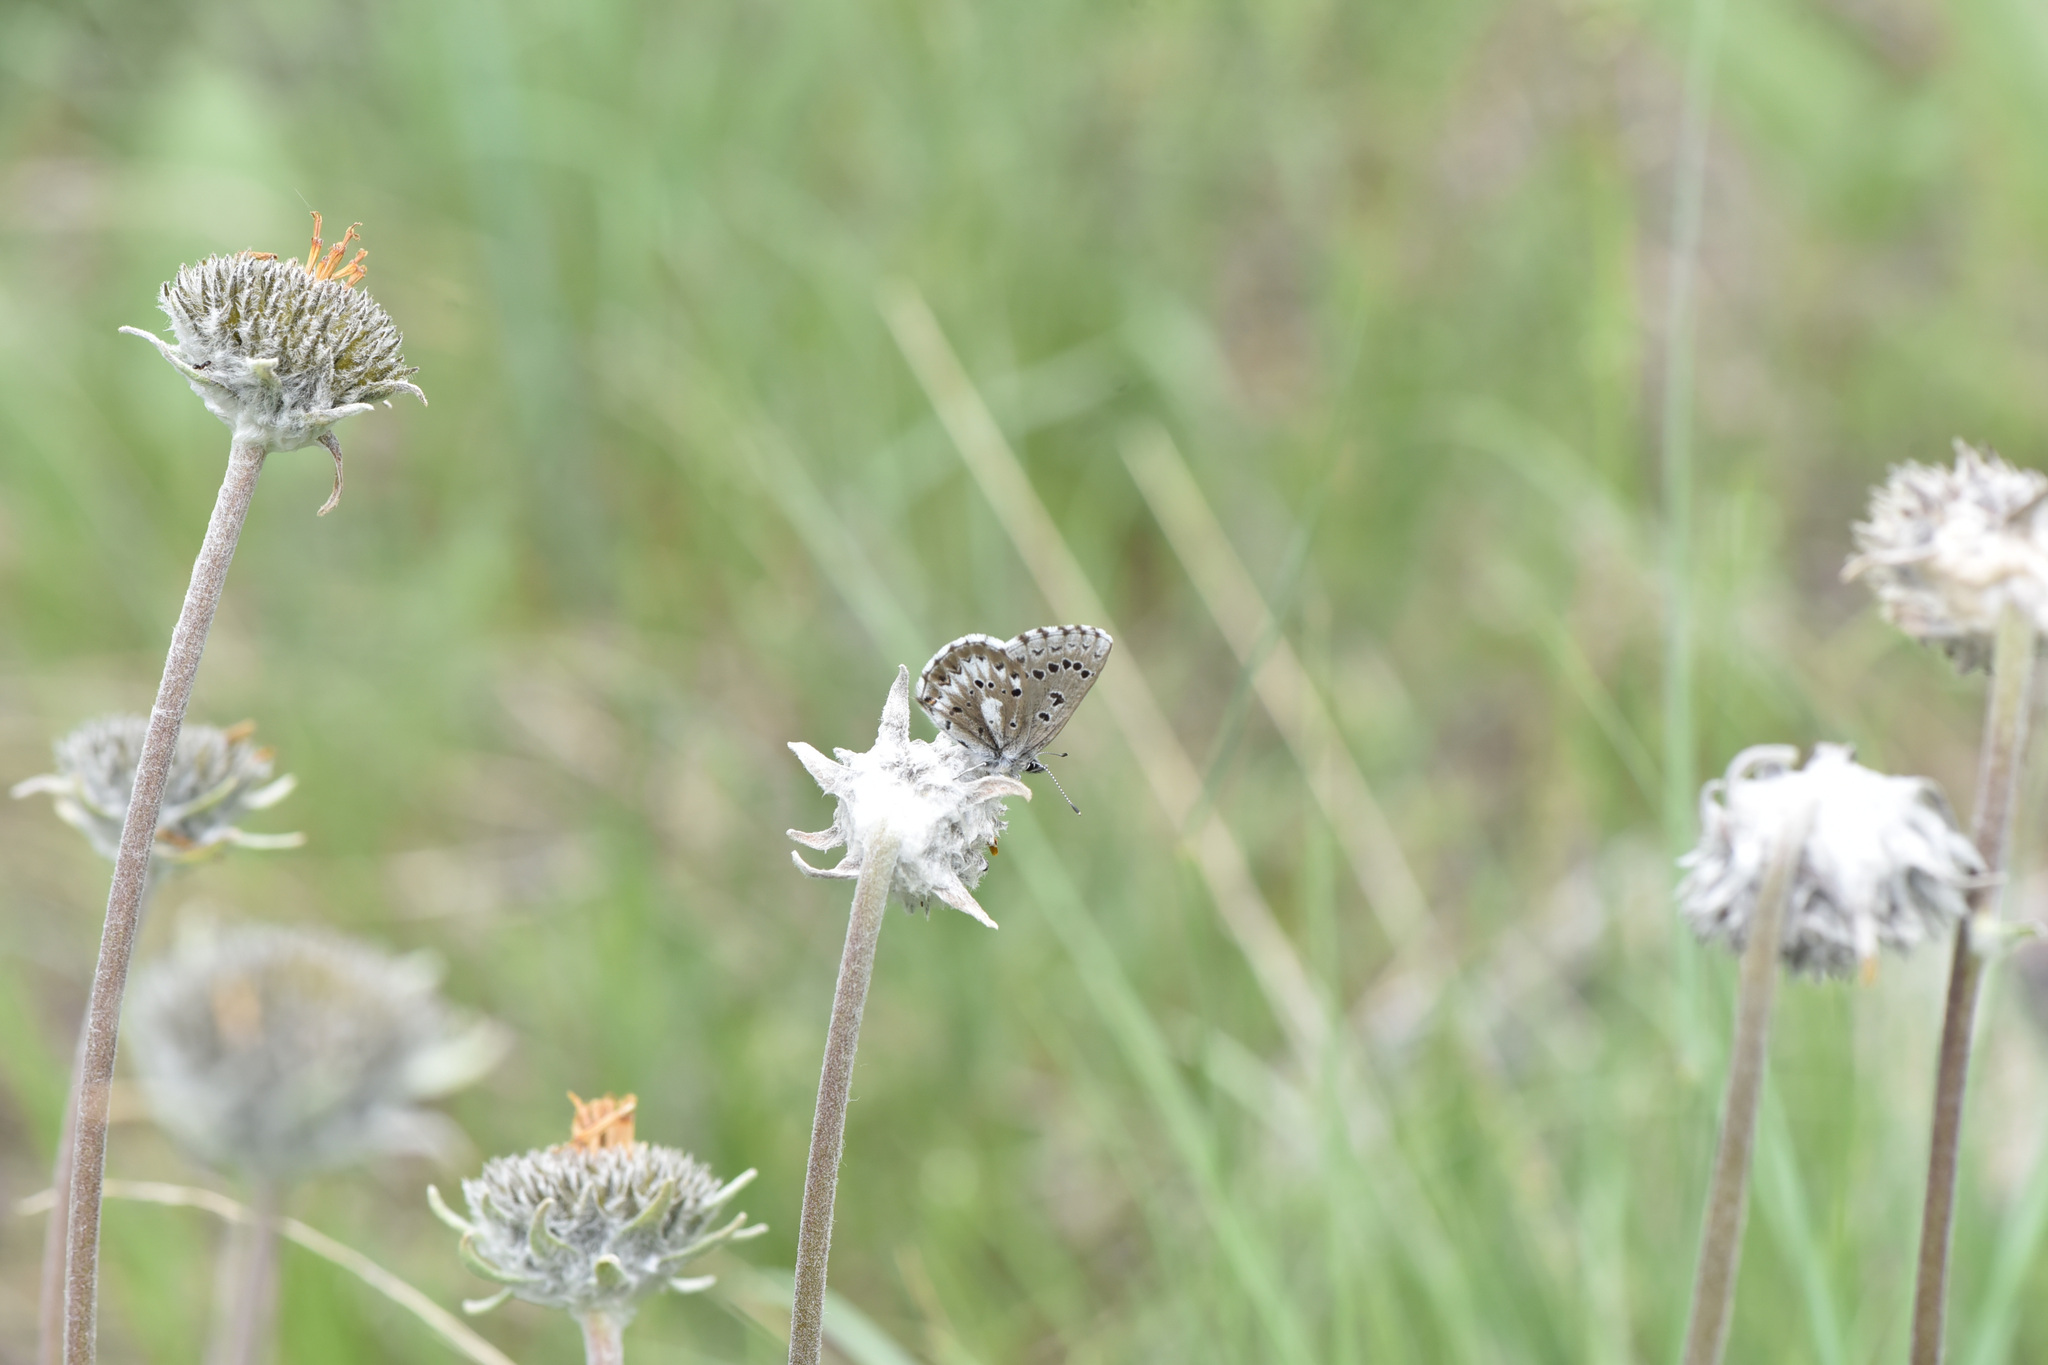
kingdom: Animalia
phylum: Arthropoda
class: Insecta
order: Lepidoptera
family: Lycaenidae
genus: Glaucopsyche
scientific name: Glaucopsyche piasus
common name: Arrowhead blue
